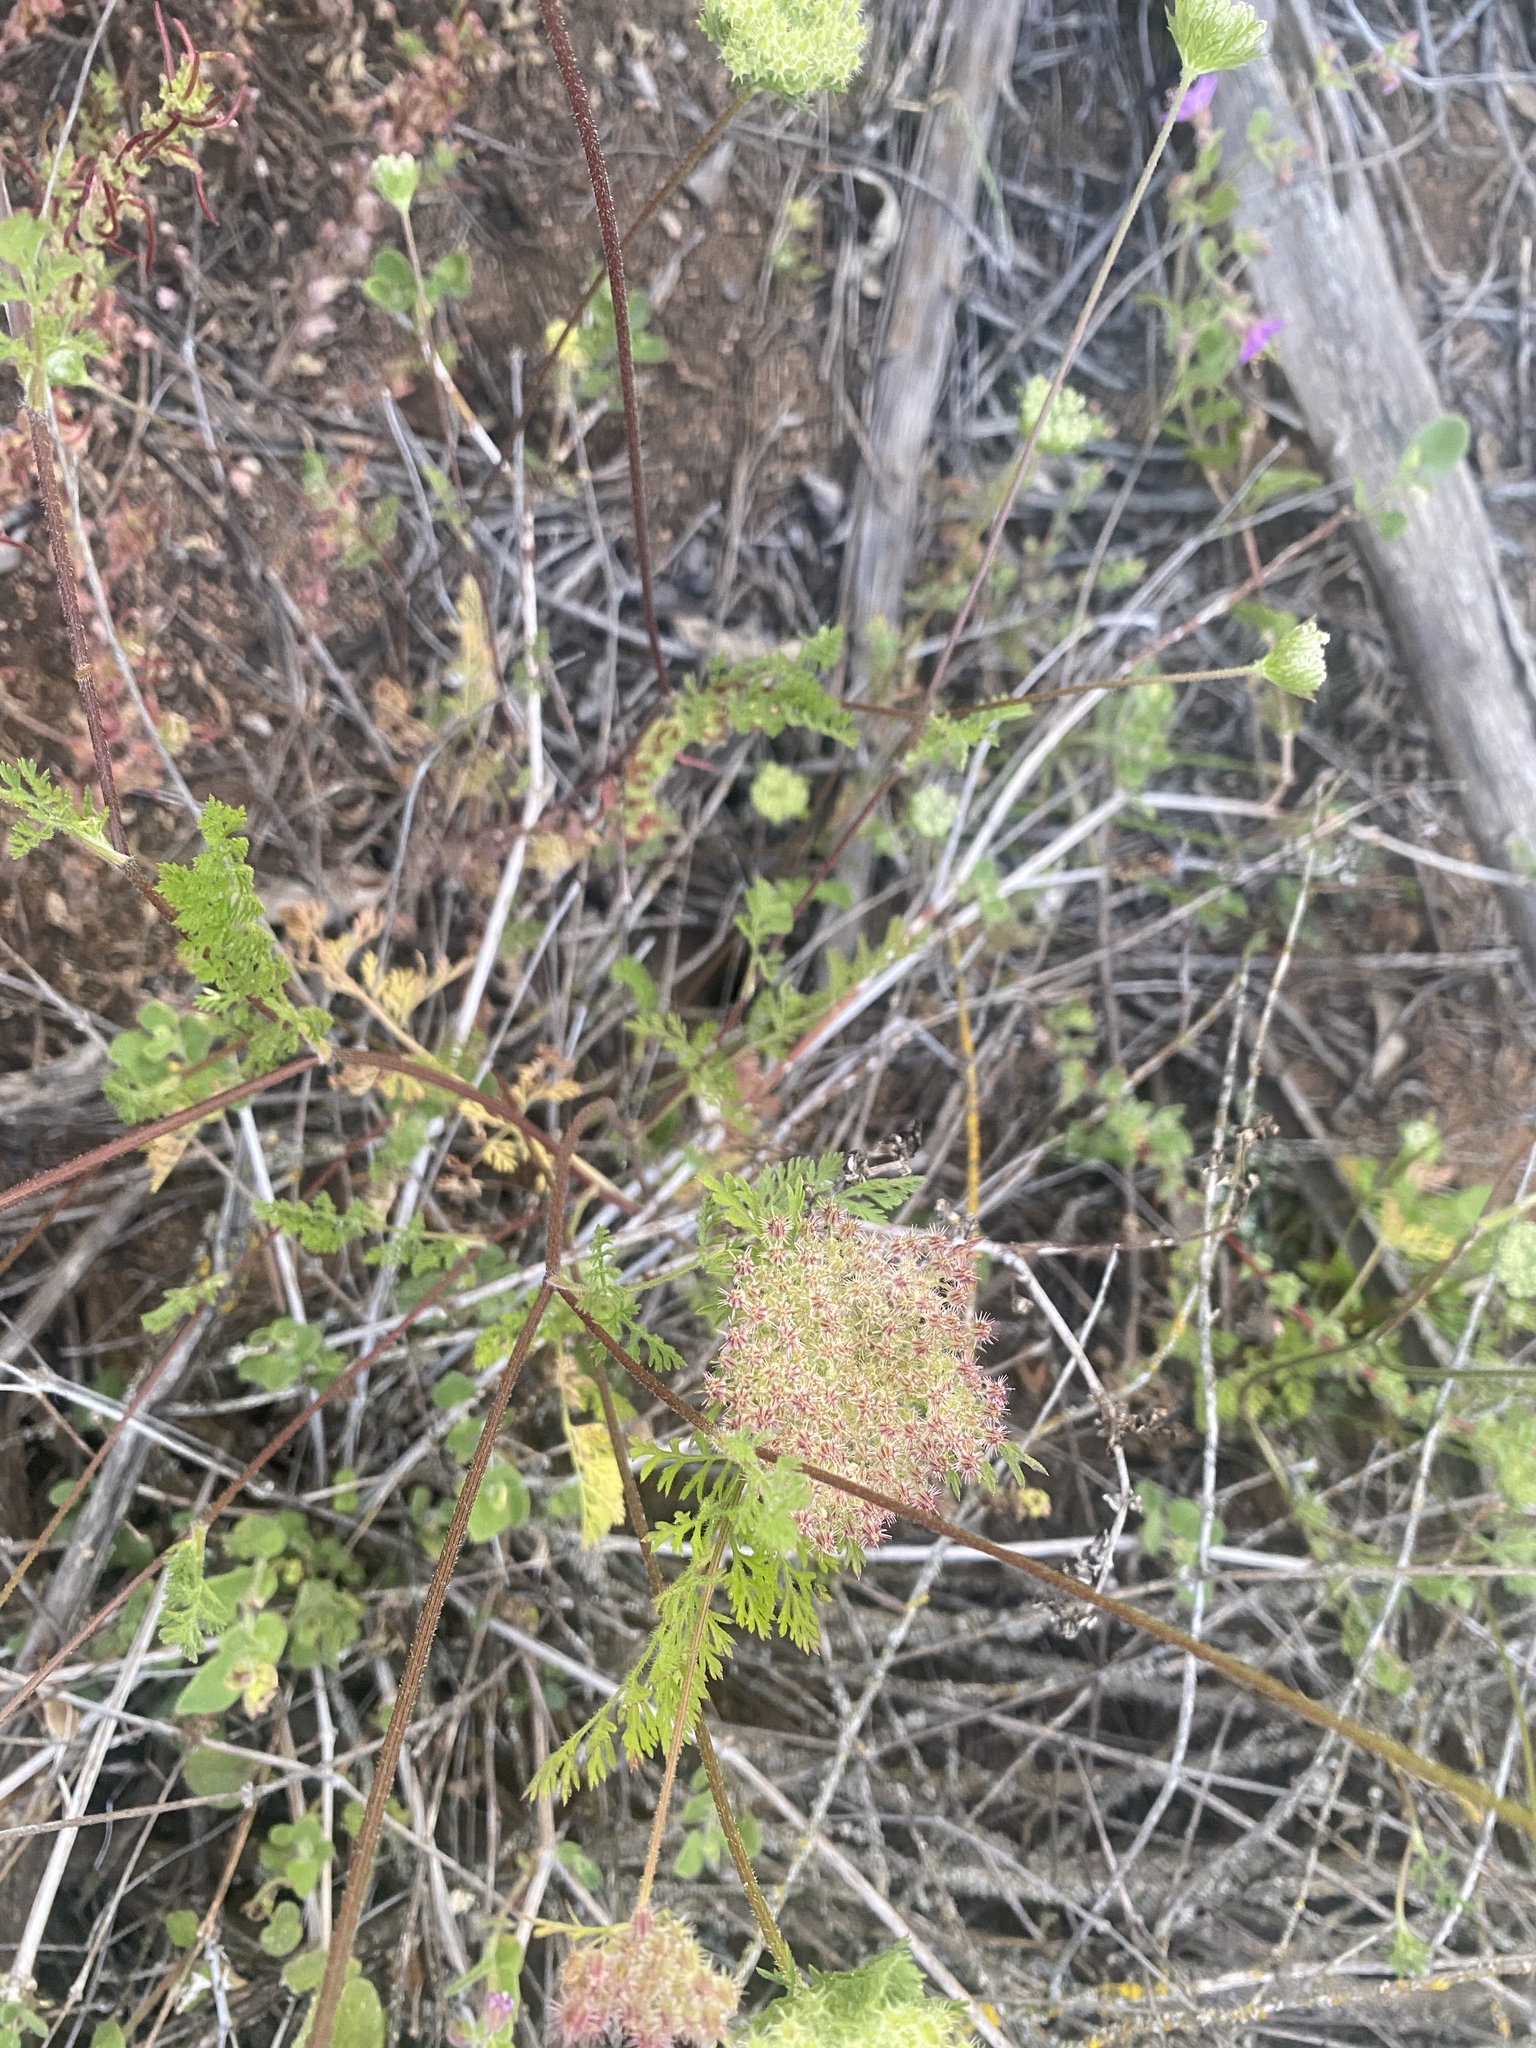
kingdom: Plantae
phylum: Tracheophyta
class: Magnoliopsida
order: Apiales
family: Apiaceae
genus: Daucus
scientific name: Daucus pusillus
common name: Southwest wild carrot
